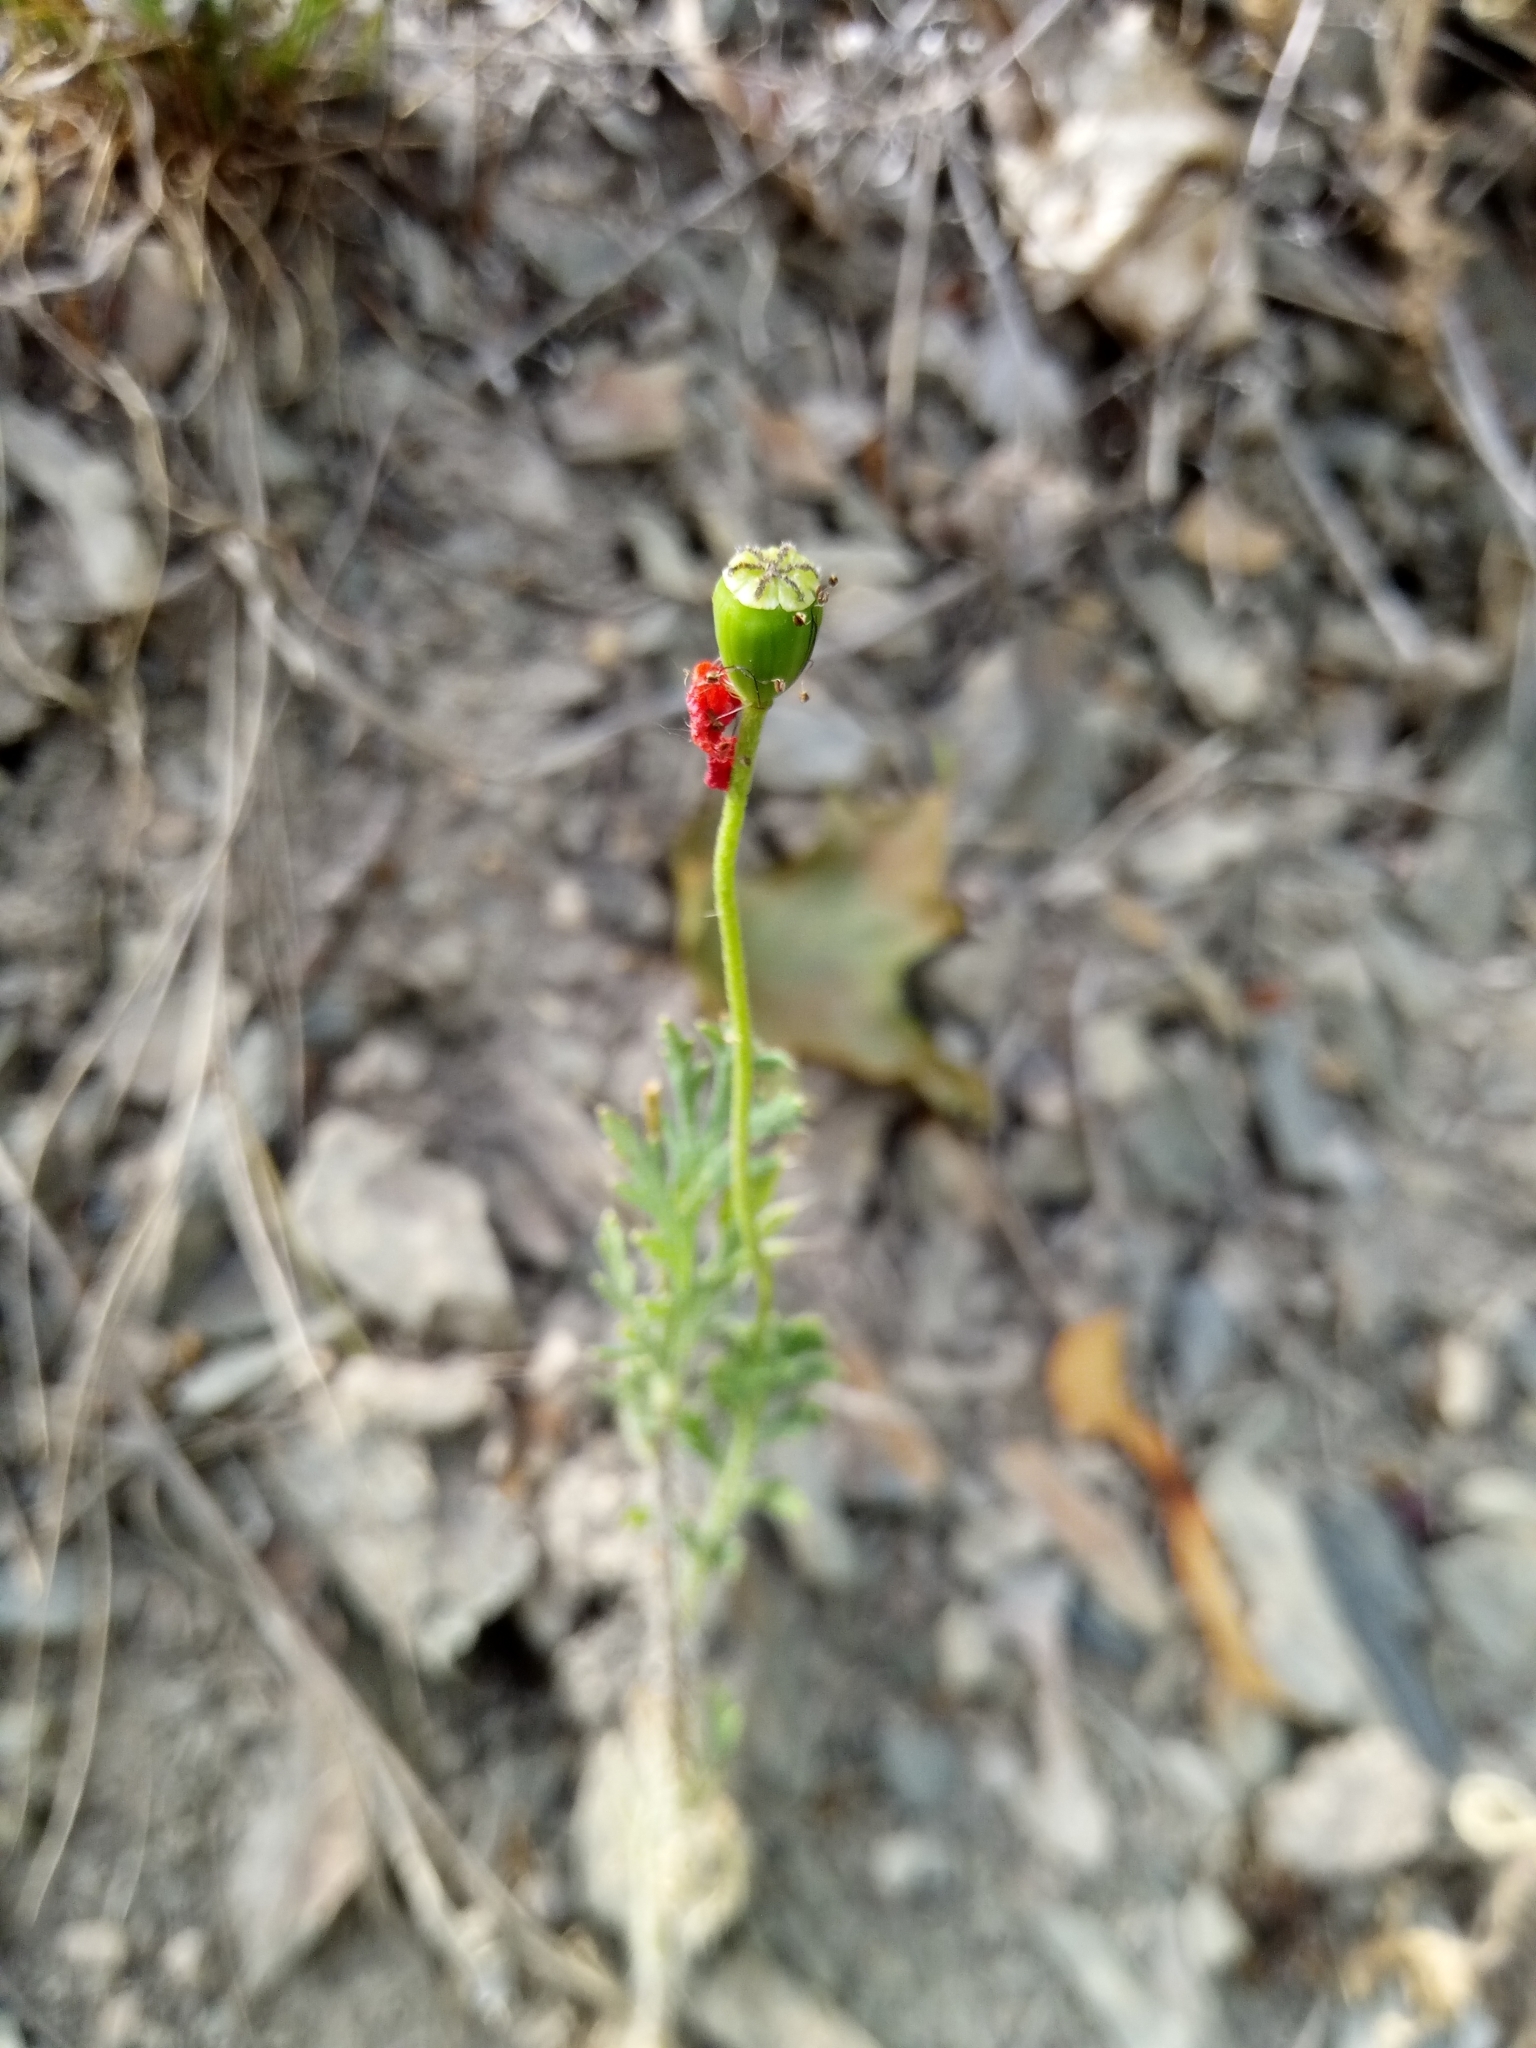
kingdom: Plantae
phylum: Tracheophyta
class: Magnoliopsida
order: Ranunculales
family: Papaveraceae
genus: Papaver
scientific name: Papaver dubium
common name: Long-headed poppy
